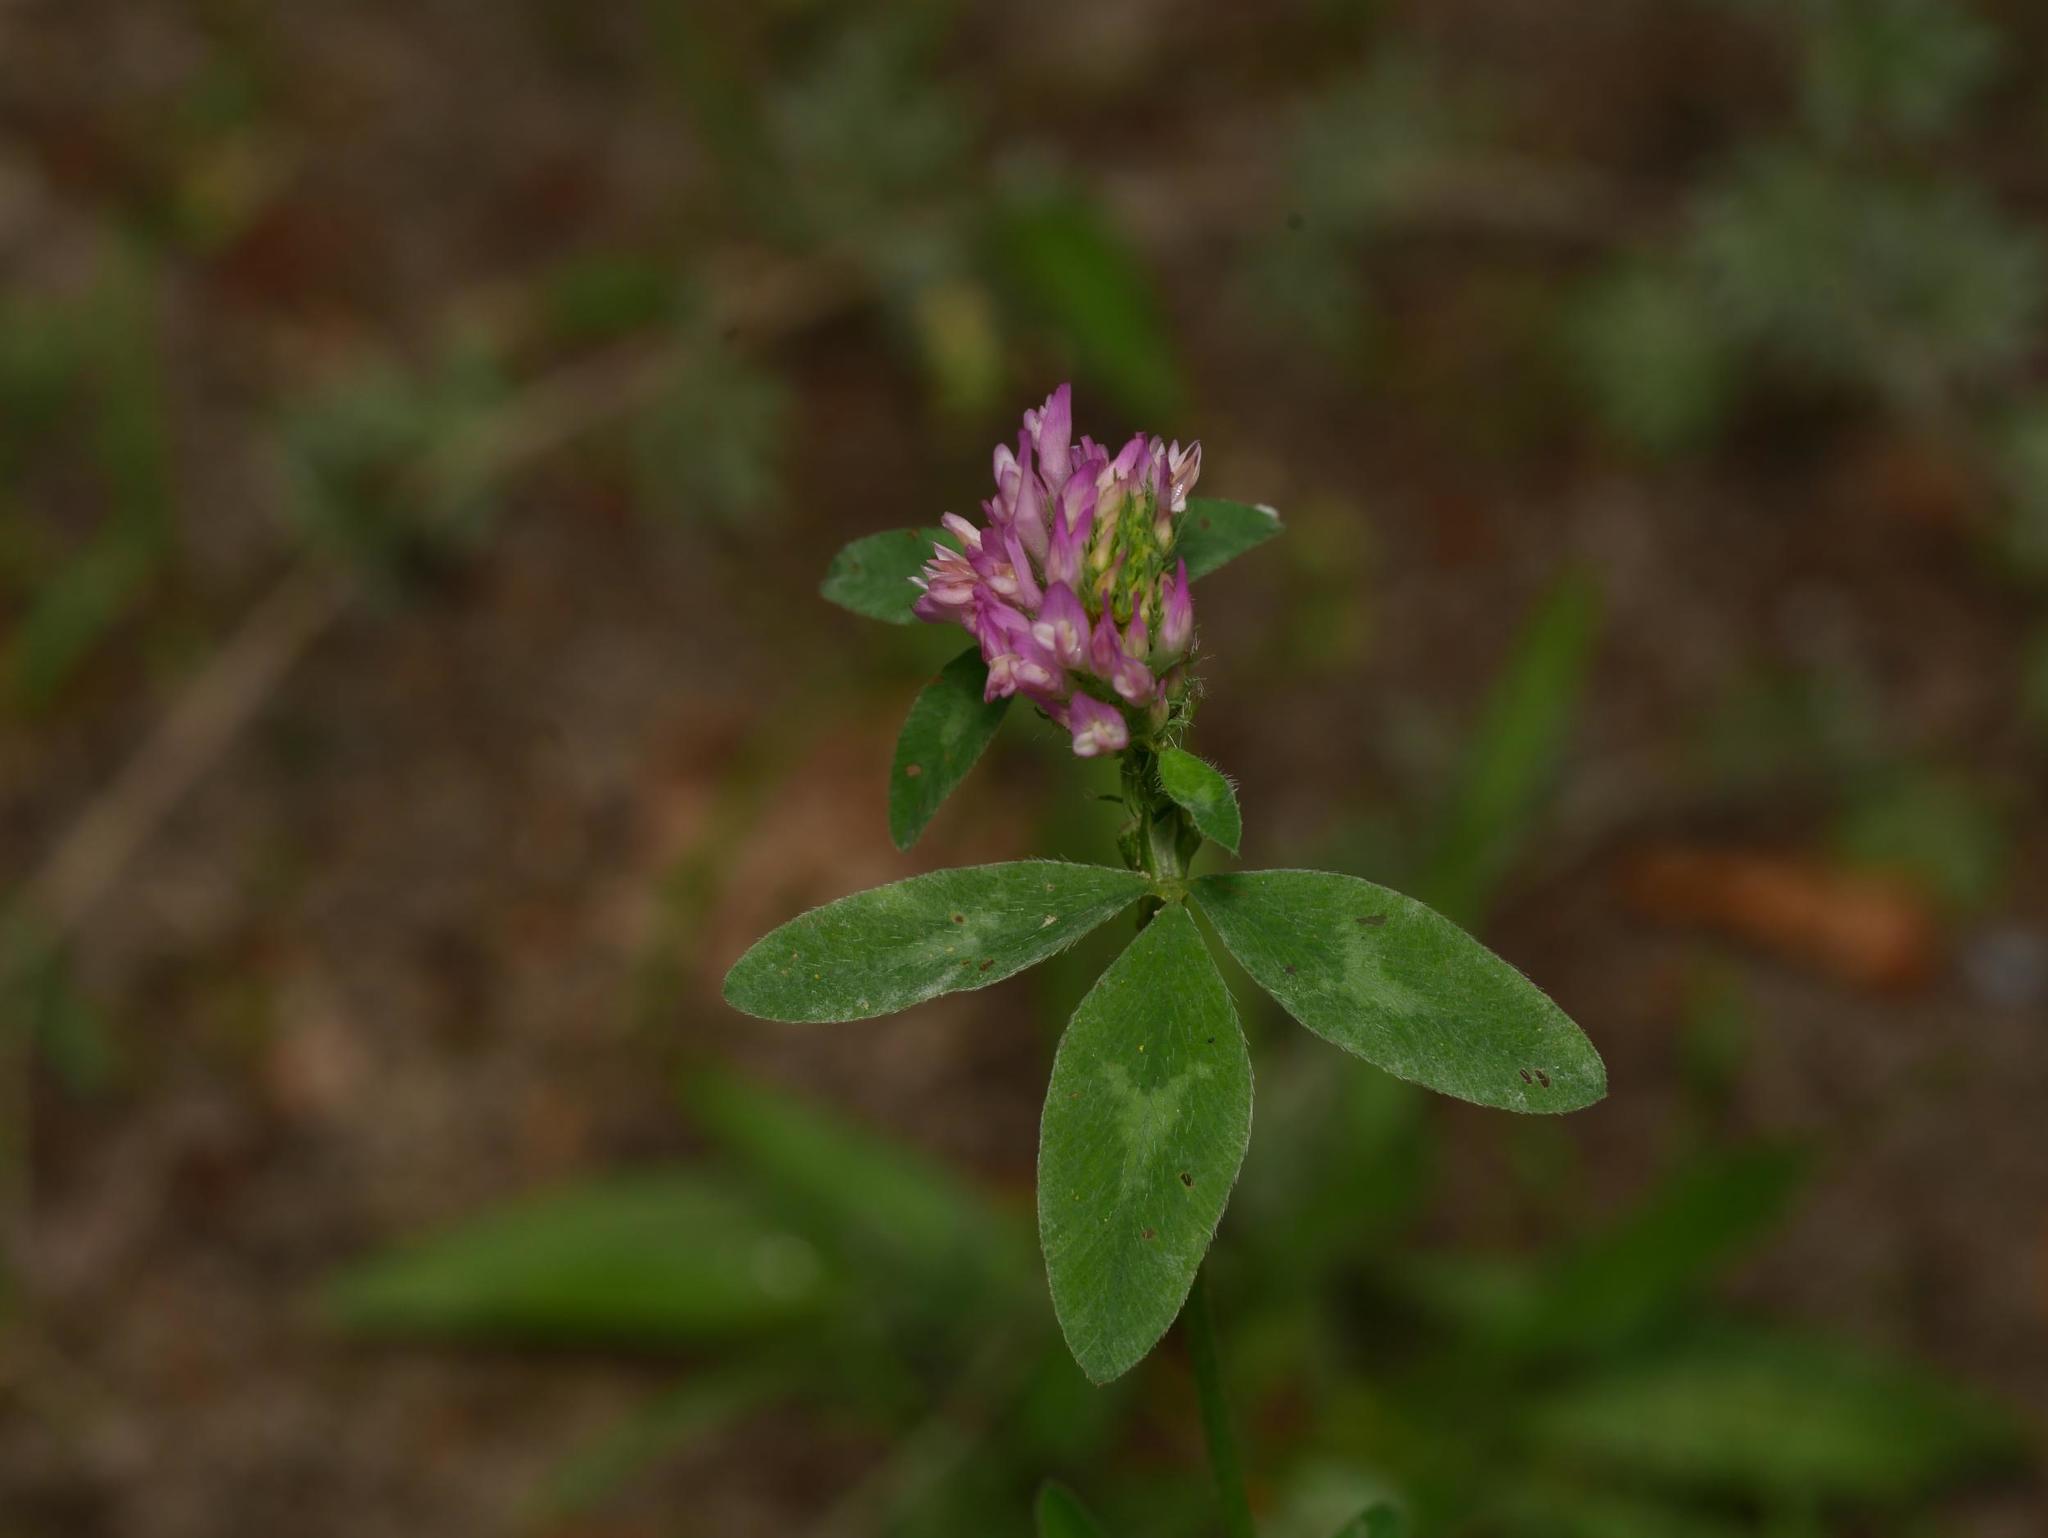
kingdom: Plantae
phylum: Tracheophyta
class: Magnoliopsida
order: Fabales
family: Fabaceae
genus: Trifolium
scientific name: Trifolium pratense
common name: Red clover
